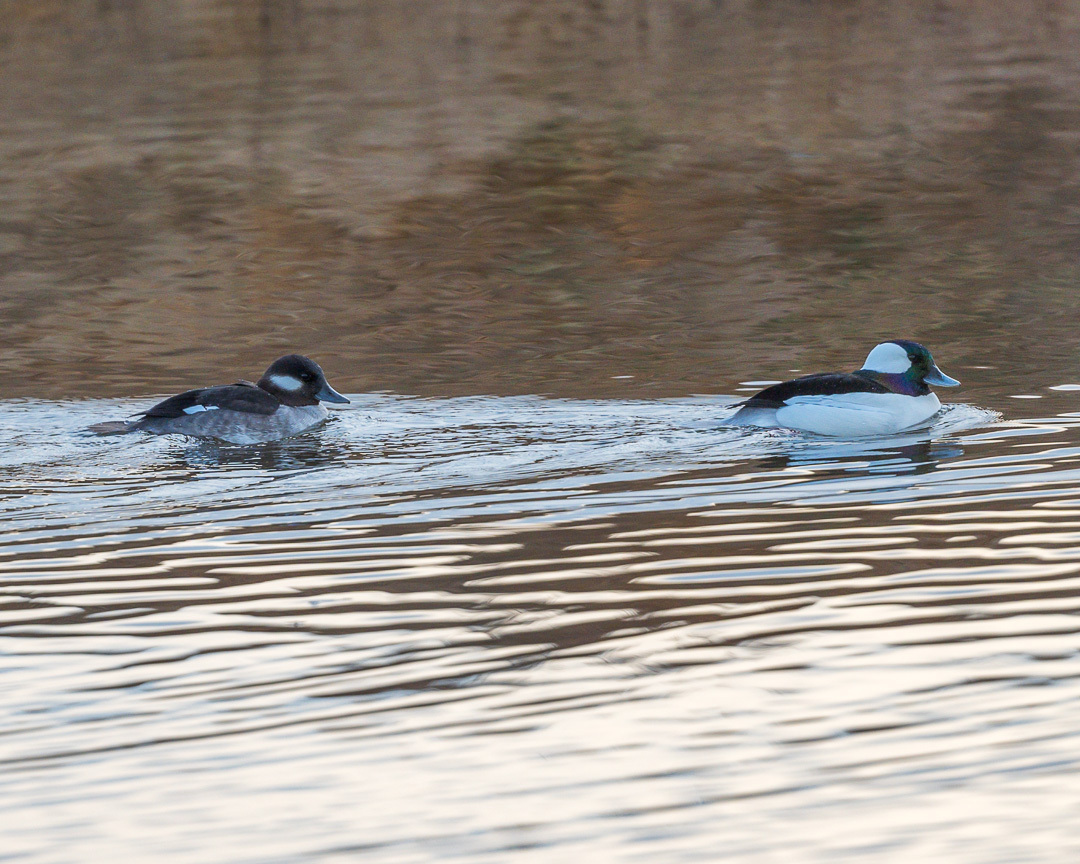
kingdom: Animalia
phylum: Chordata
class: Aves
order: Anseriformes
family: Anatidae
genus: Bucephala
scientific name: Bucephala albeola
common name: Bufflehead
